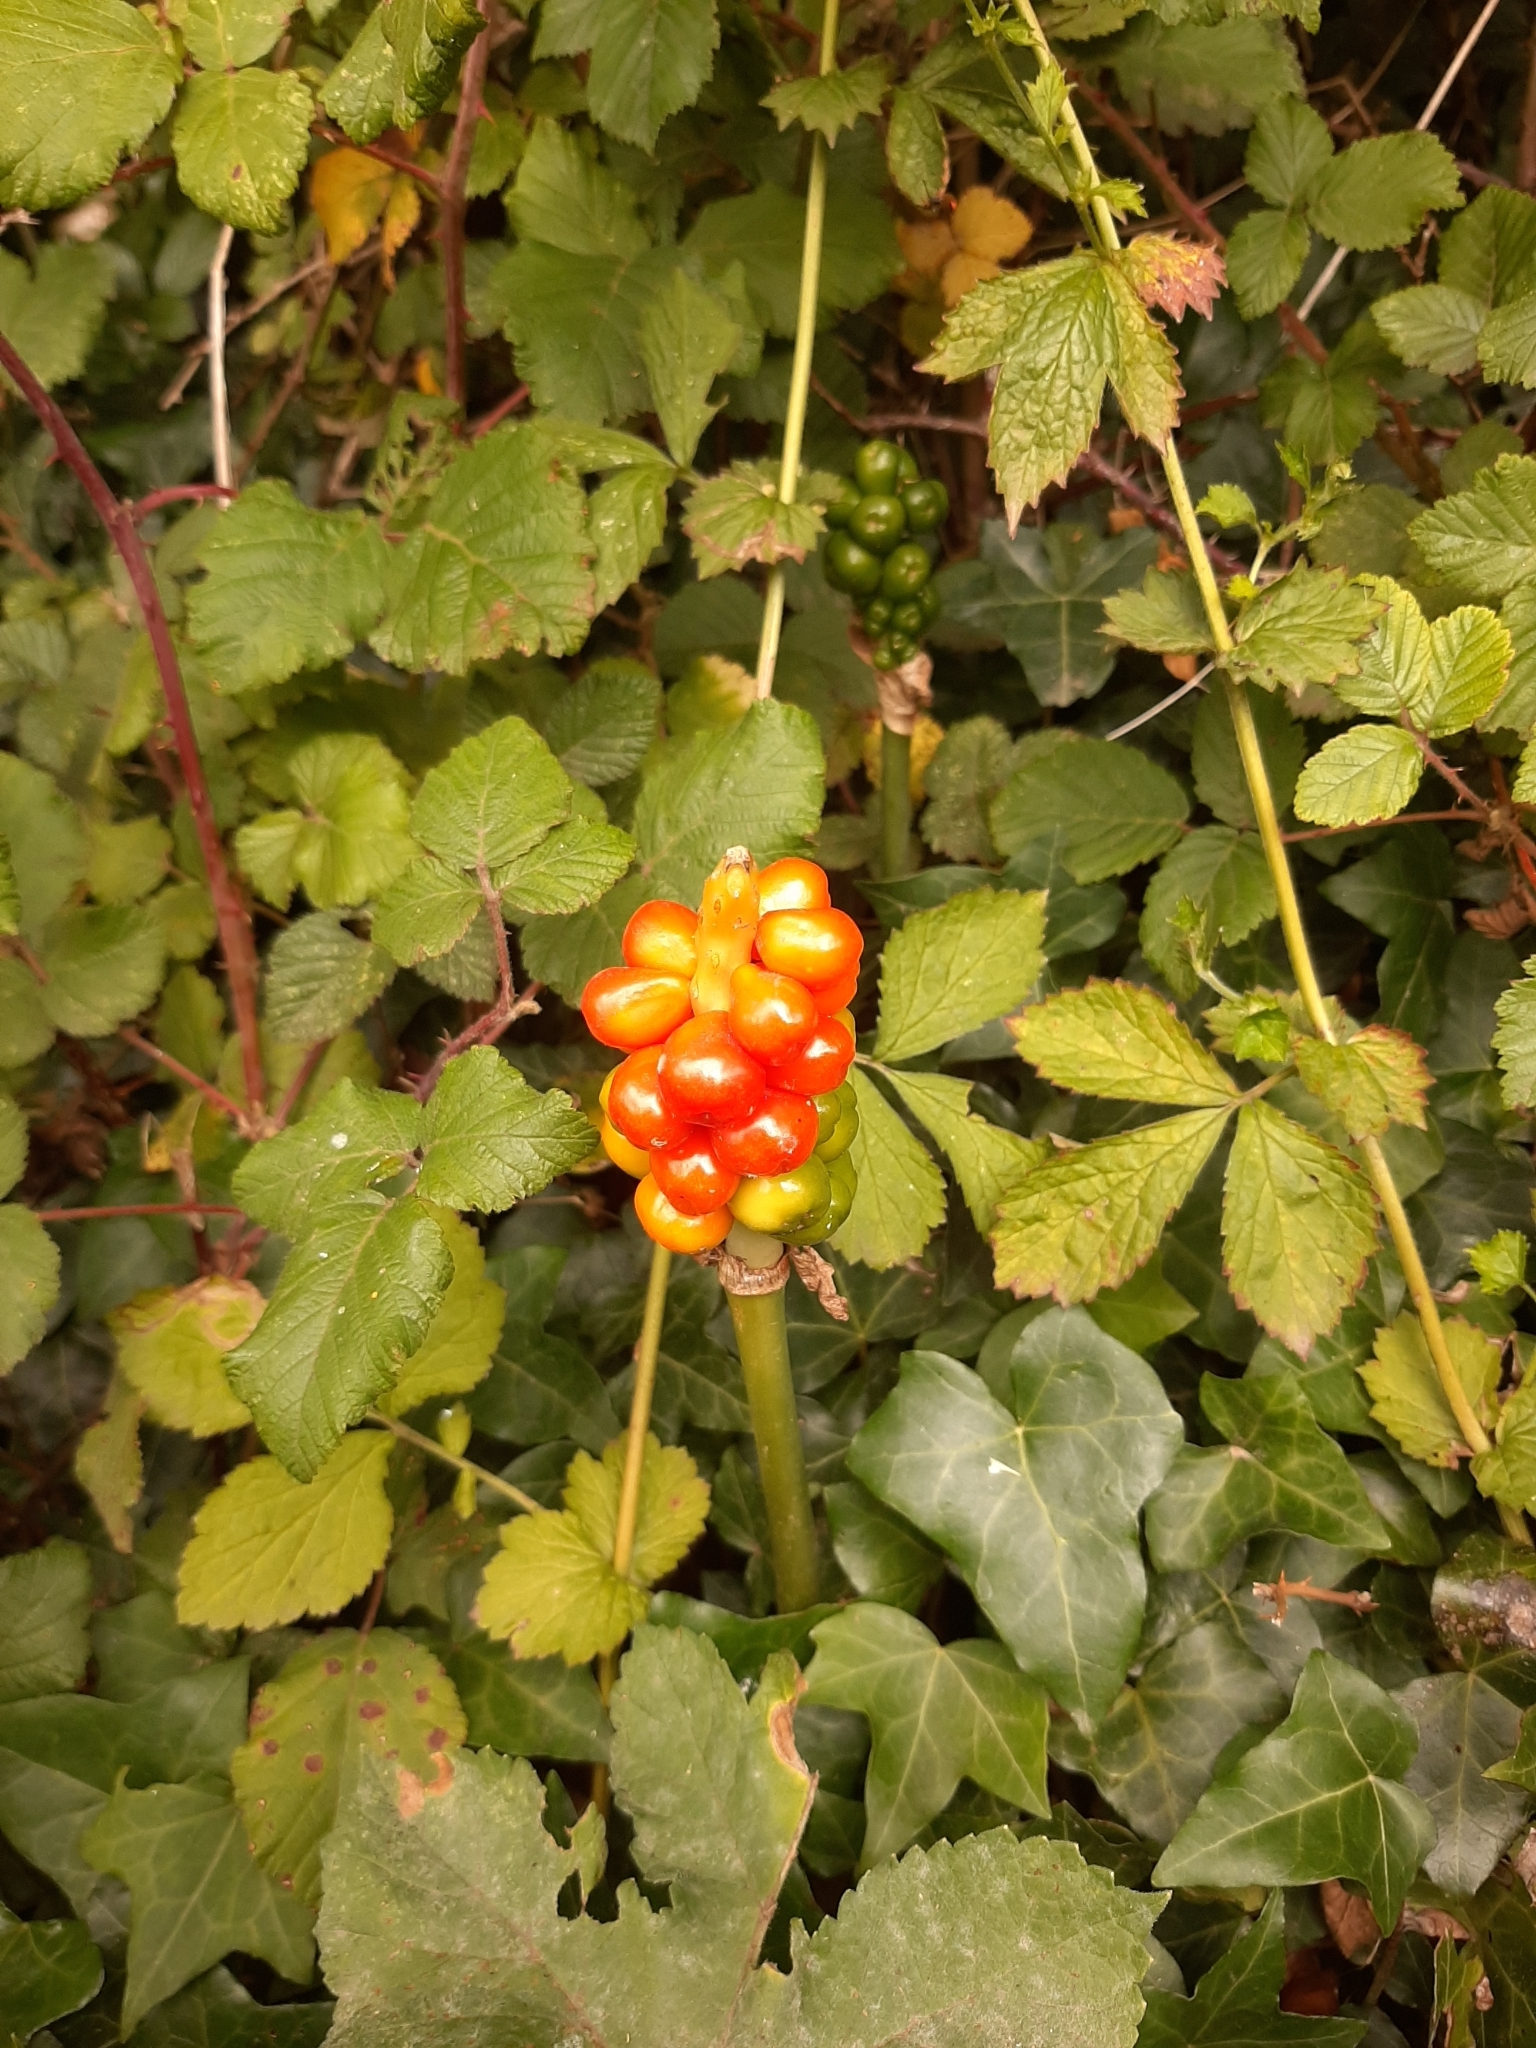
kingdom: Plantae
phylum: Tracheophyta
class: Liliopsida
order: Alismatales
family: Araceae
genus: Arum
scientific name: Arum maculatum
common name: Lords-and-ladies
